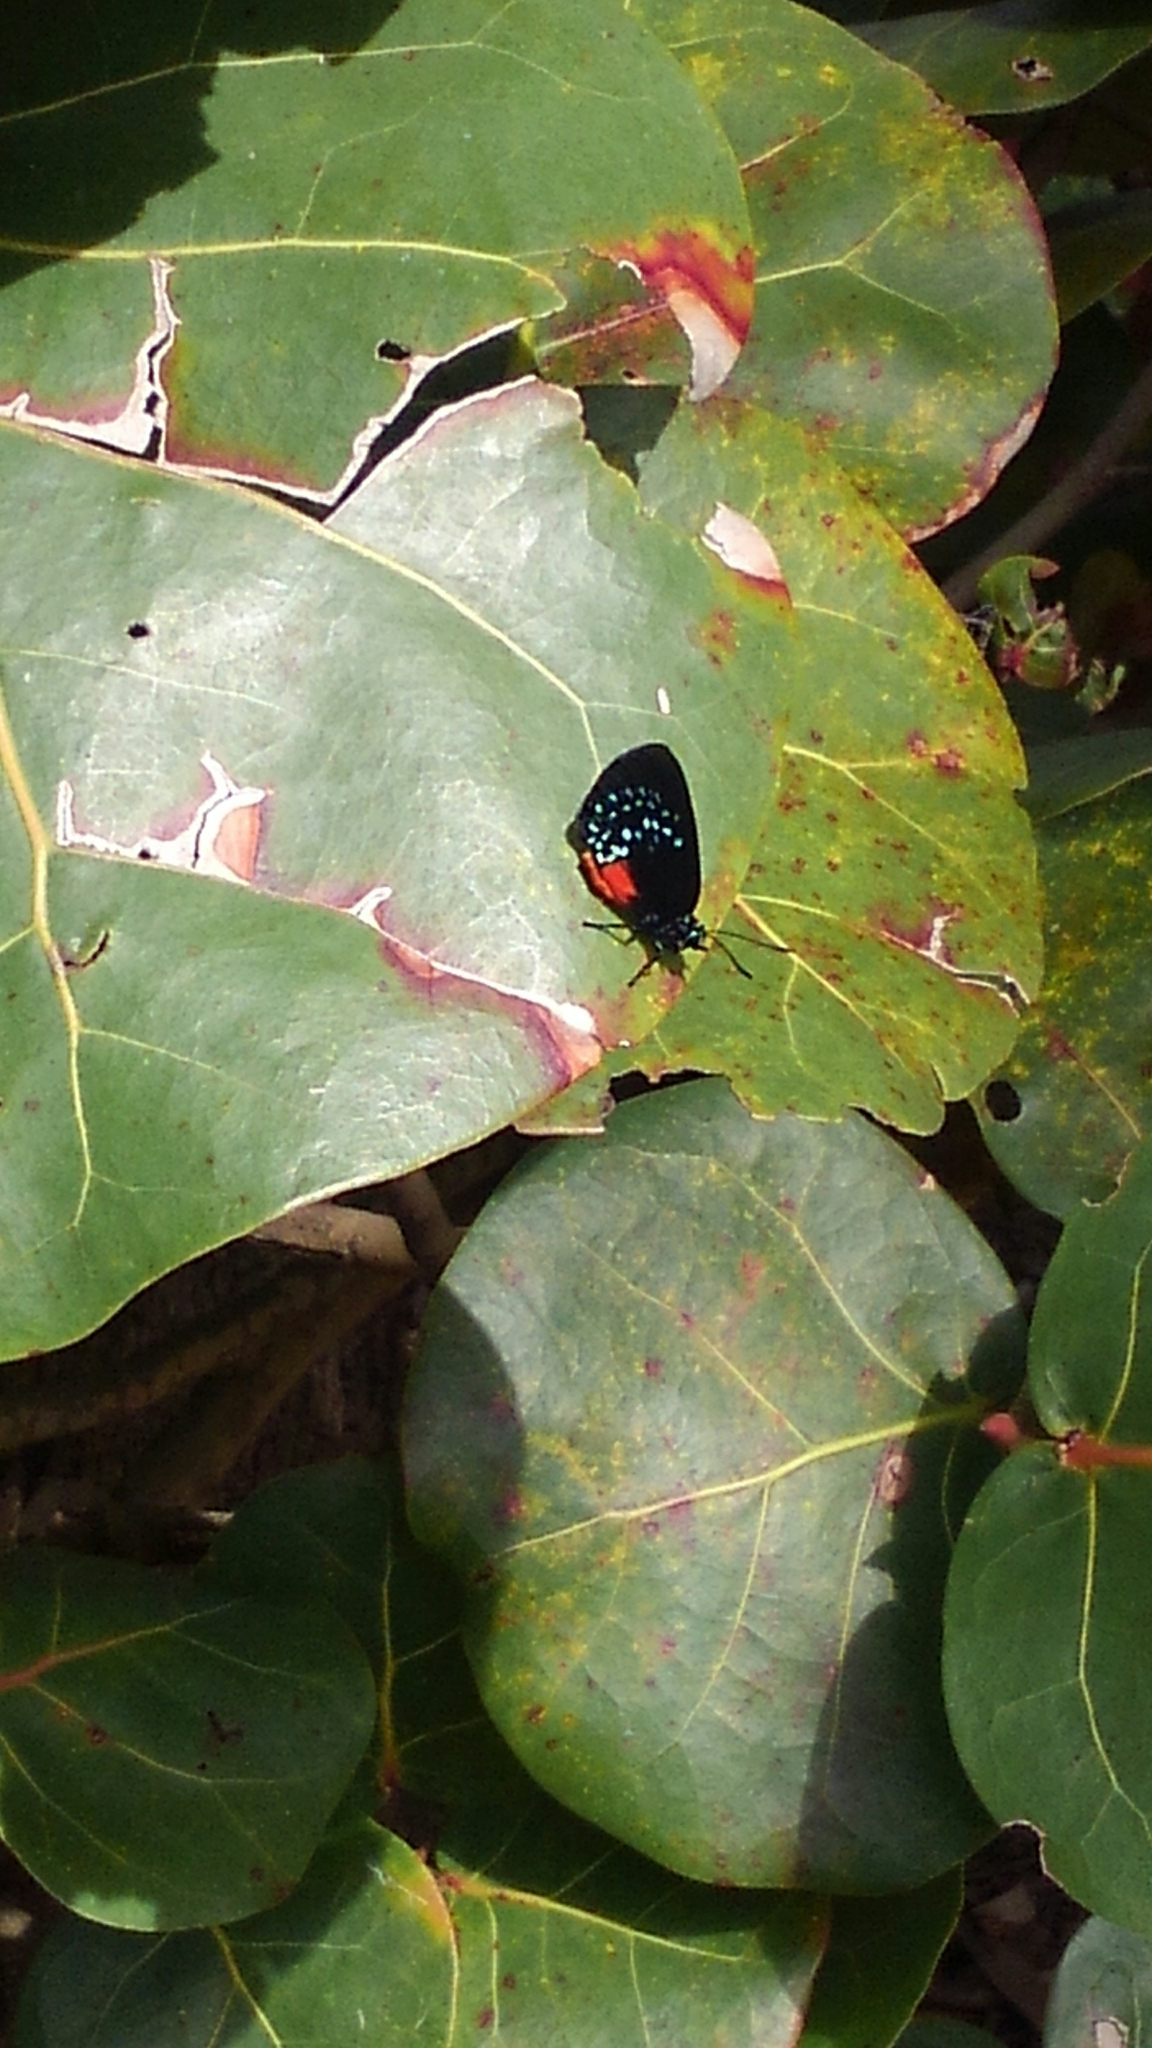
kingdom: Animalia
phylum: Arthropoda
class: Insecta
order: Lepidoptera
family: Lycaenidae
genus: Eumaeus
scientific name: Eumaeus atala
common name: Atala
